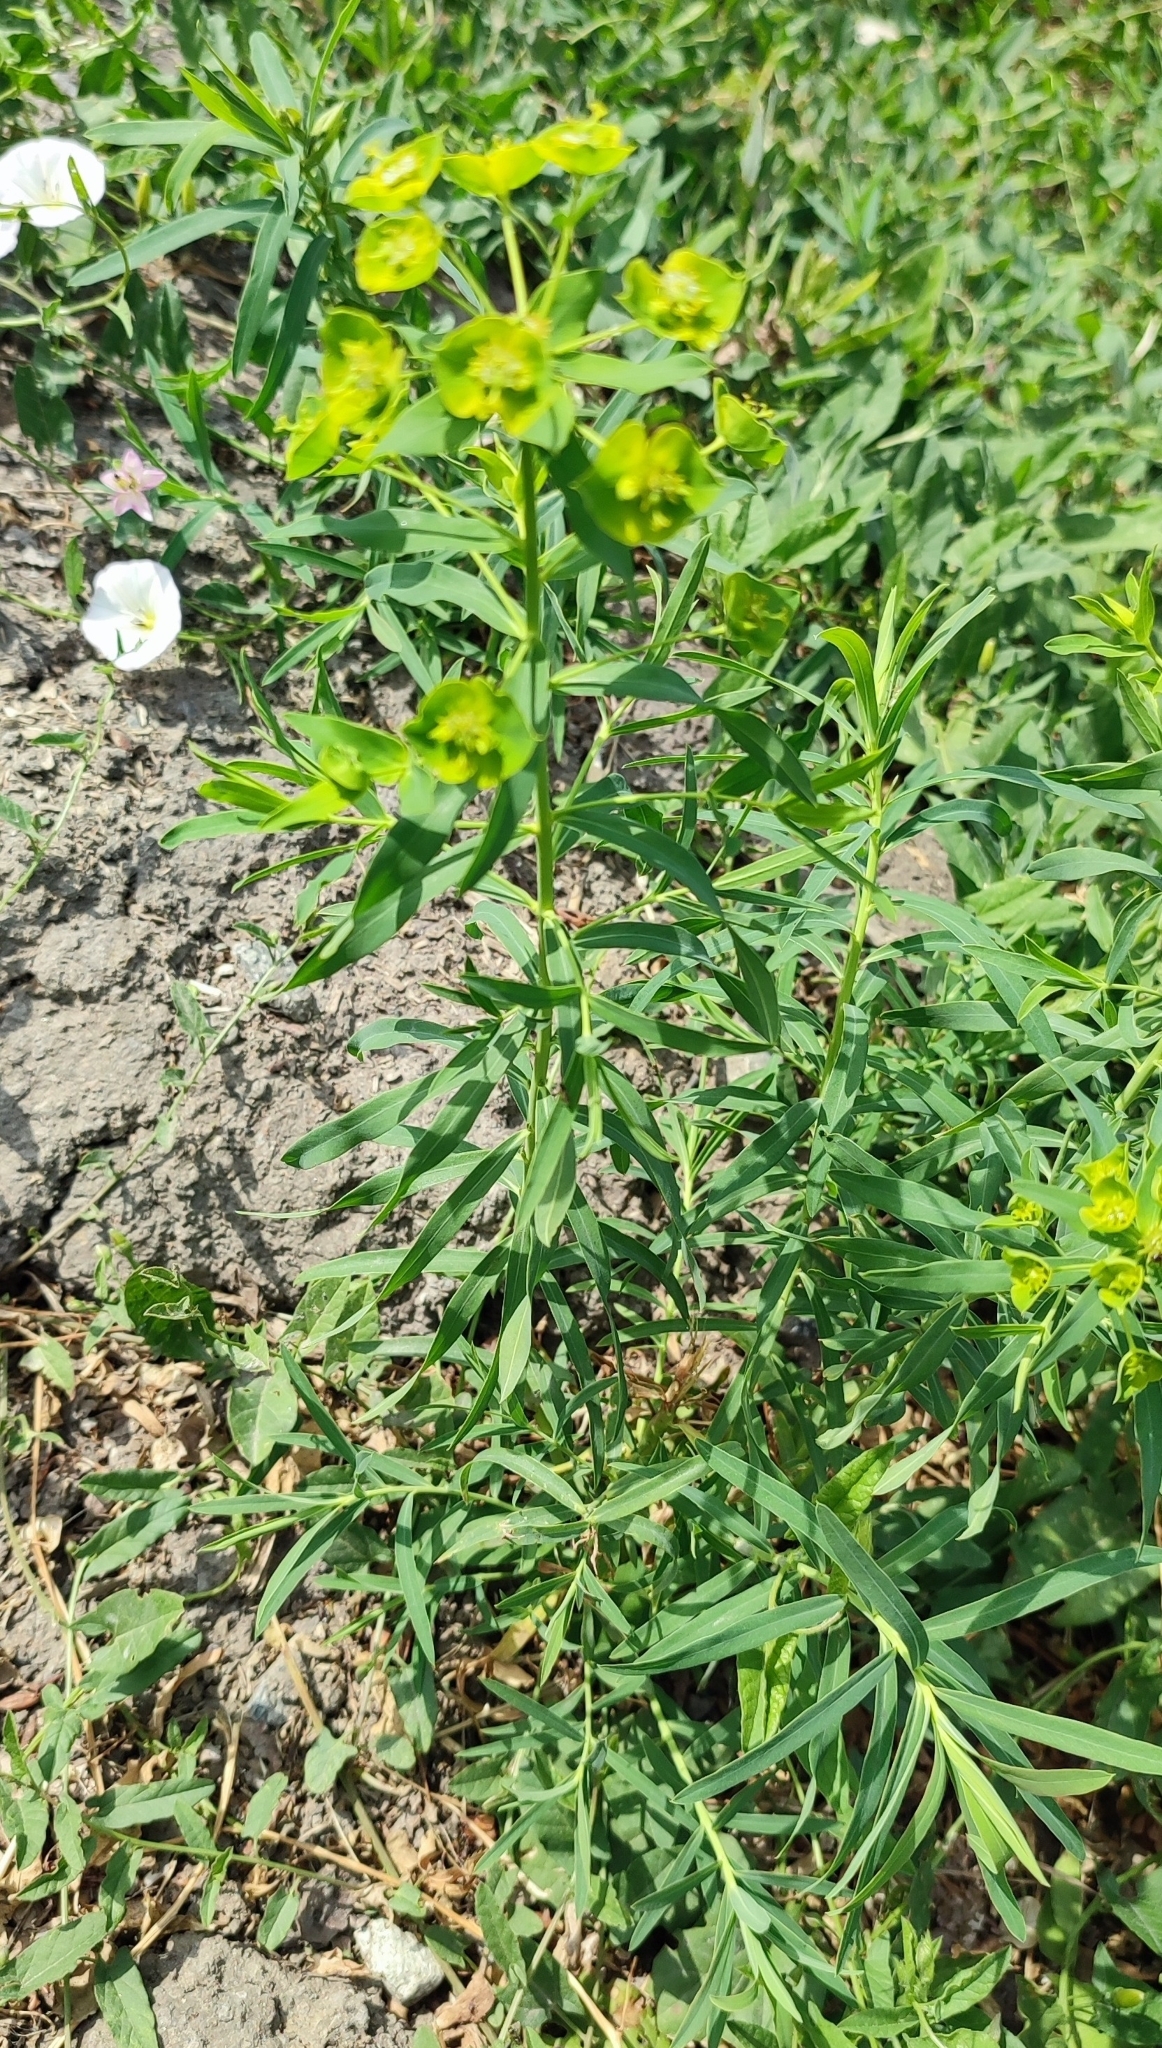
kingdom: Plantae
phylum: Tracheophyta
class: Magnoliopsida
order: Malpighiales
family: Euphorbiaceae
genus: Euphorbia
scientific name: Euphorbia virgata
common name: Leafy spurge
